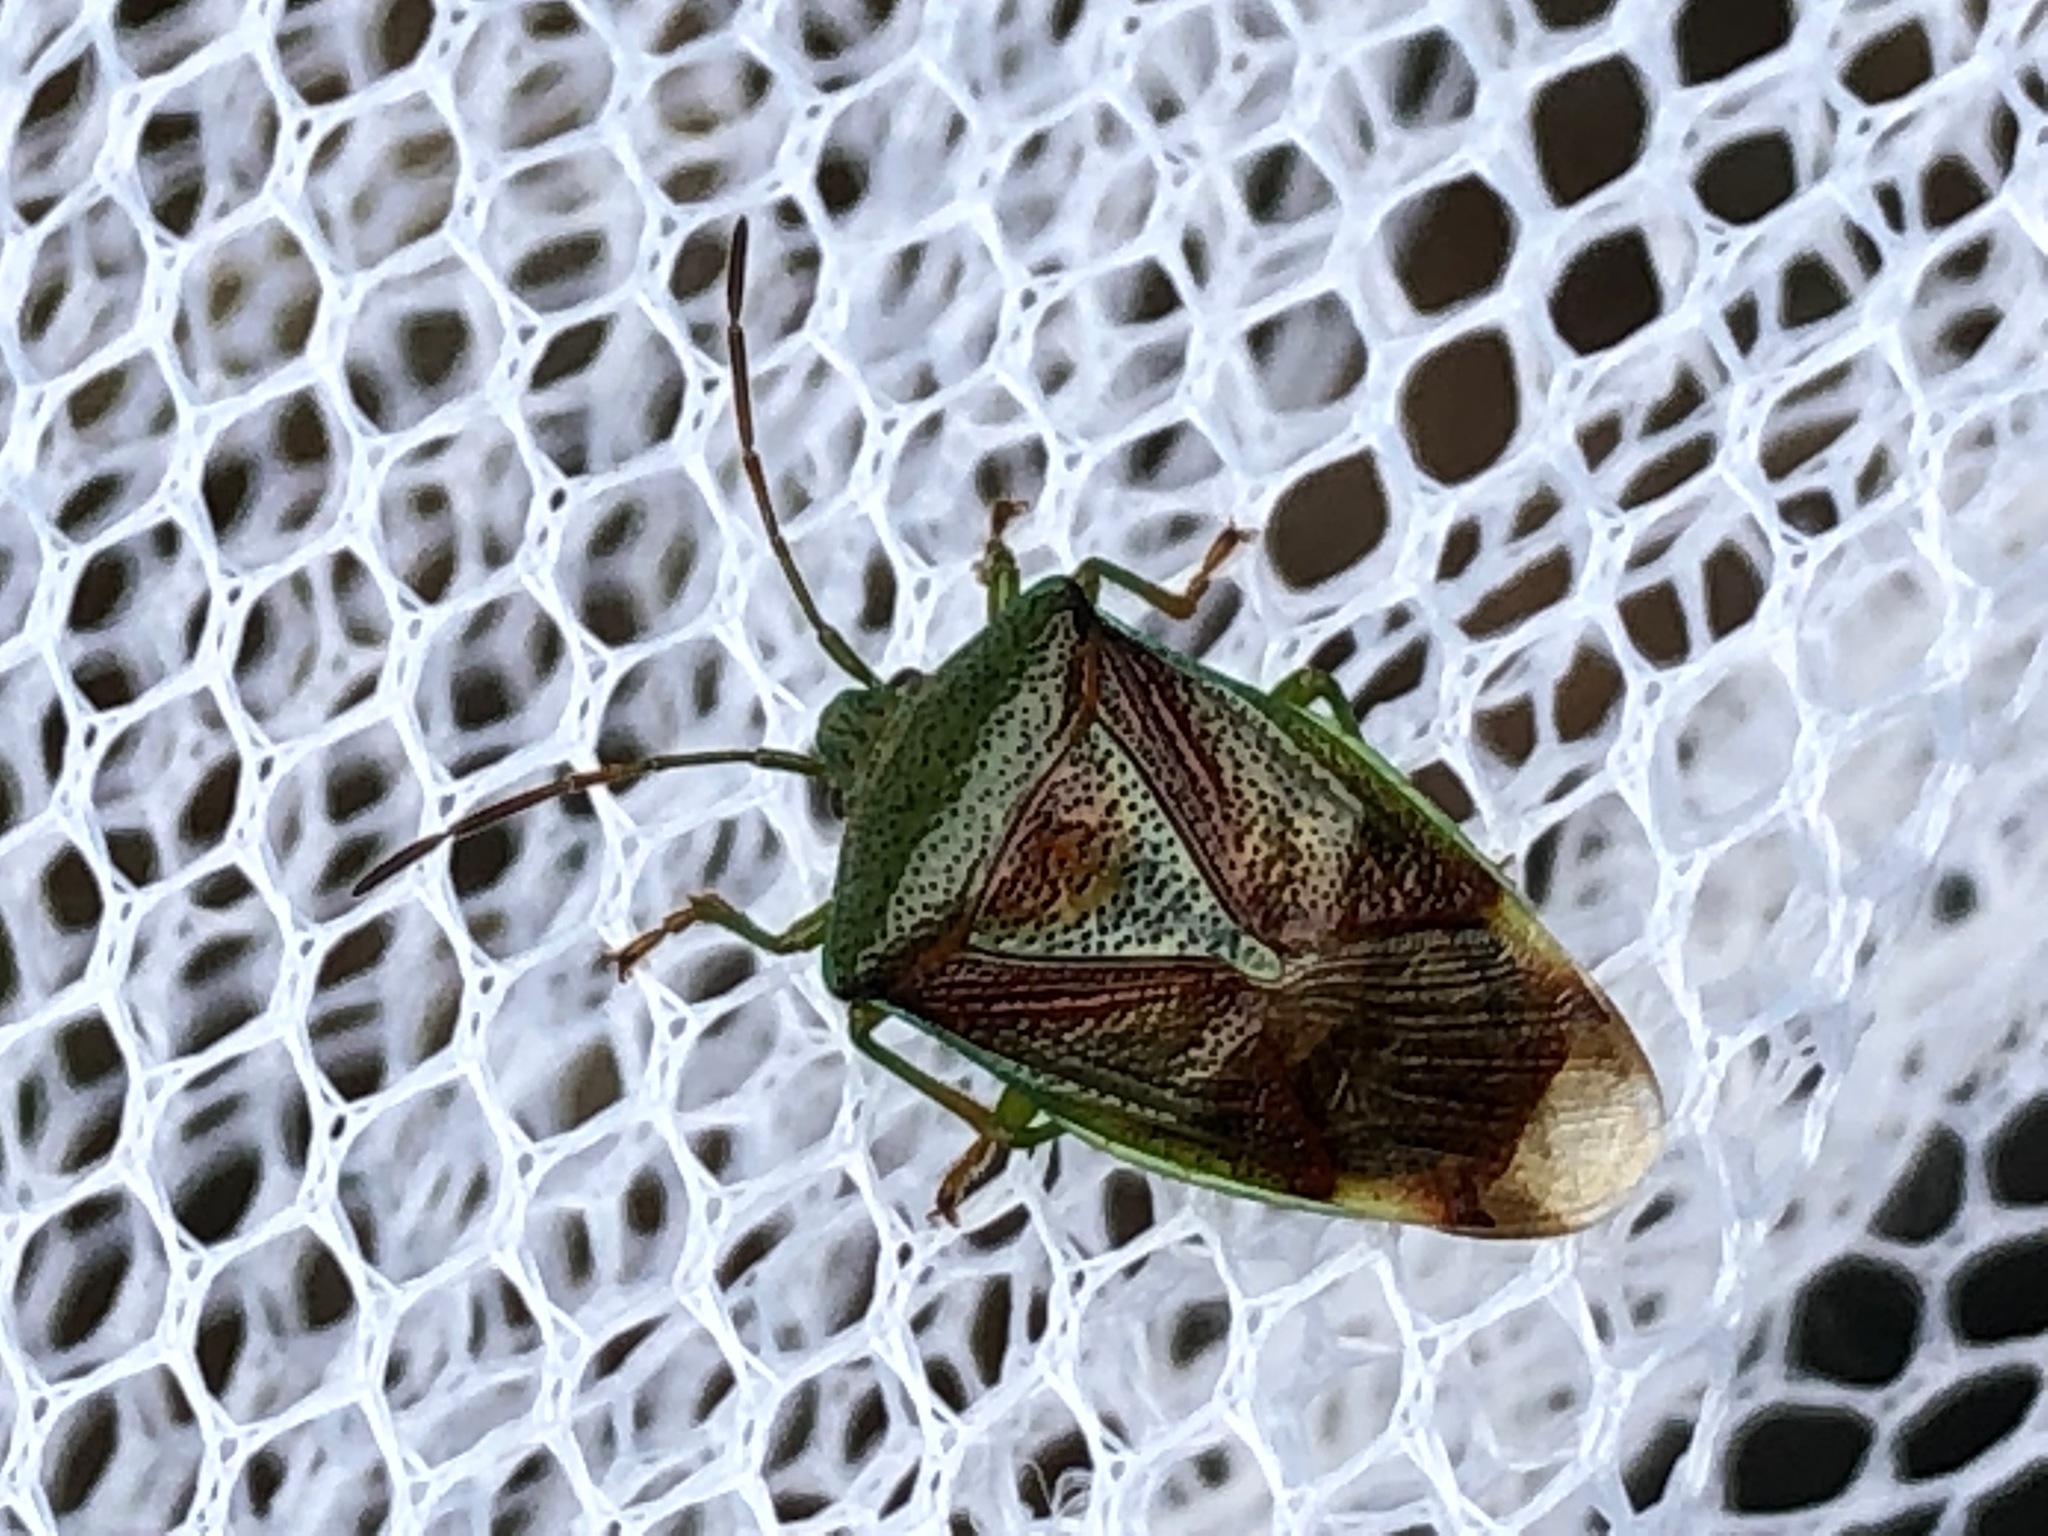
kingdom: Animalia
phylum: Arthropoda
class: Insecta
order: Hemiptera
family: Acanthosomatidae
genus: Elasmostethus
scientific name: Elasmostethus interstinctus
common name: Birch shieldbug
